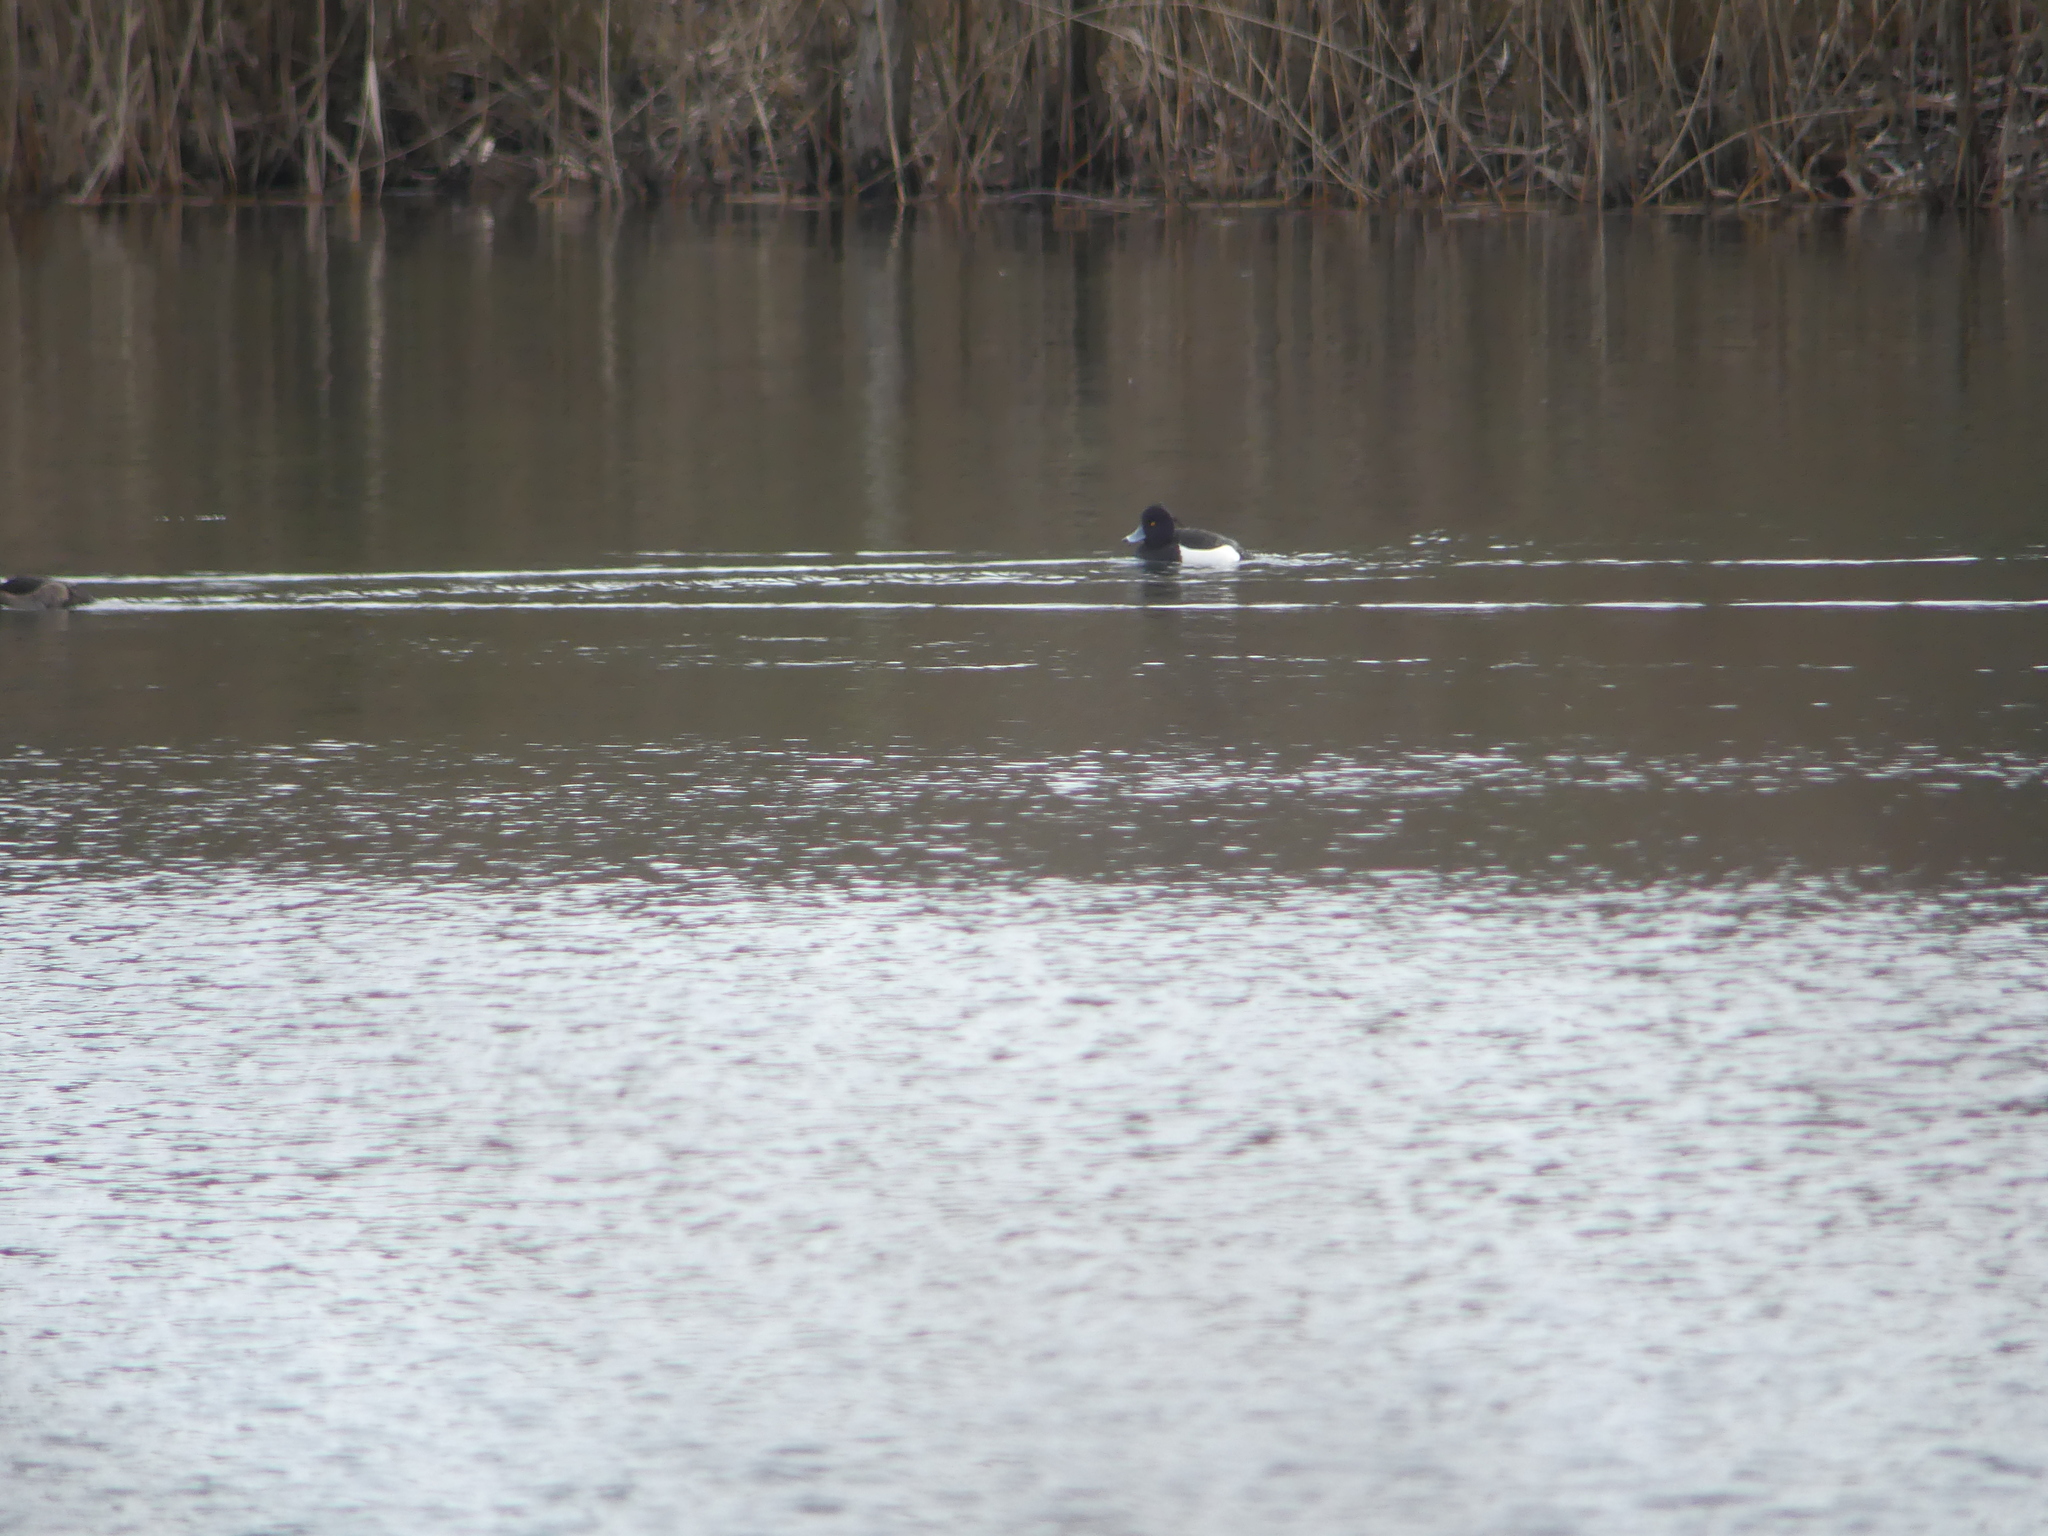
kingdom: Animalia
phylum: Chordata
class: Aves
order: Anseriformes
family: Anatidae
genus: Aythya
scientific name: Aythya fuligula
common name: Tufted duck
